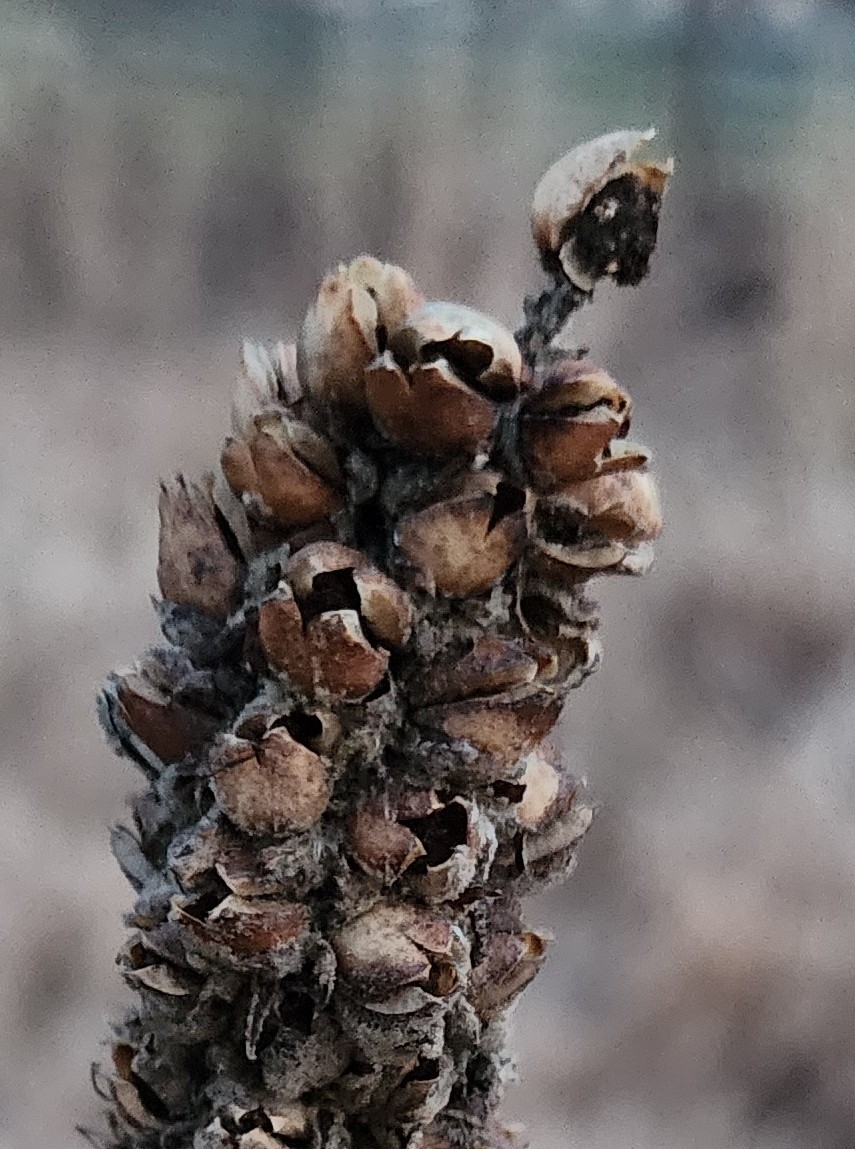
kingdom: Plantae
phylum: Tracheophyta
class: Magnoliopsida
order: Lamiales
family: Scrophulariaceae
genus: Verbascum
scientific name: Verbascum thapsus
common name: Common mullein
